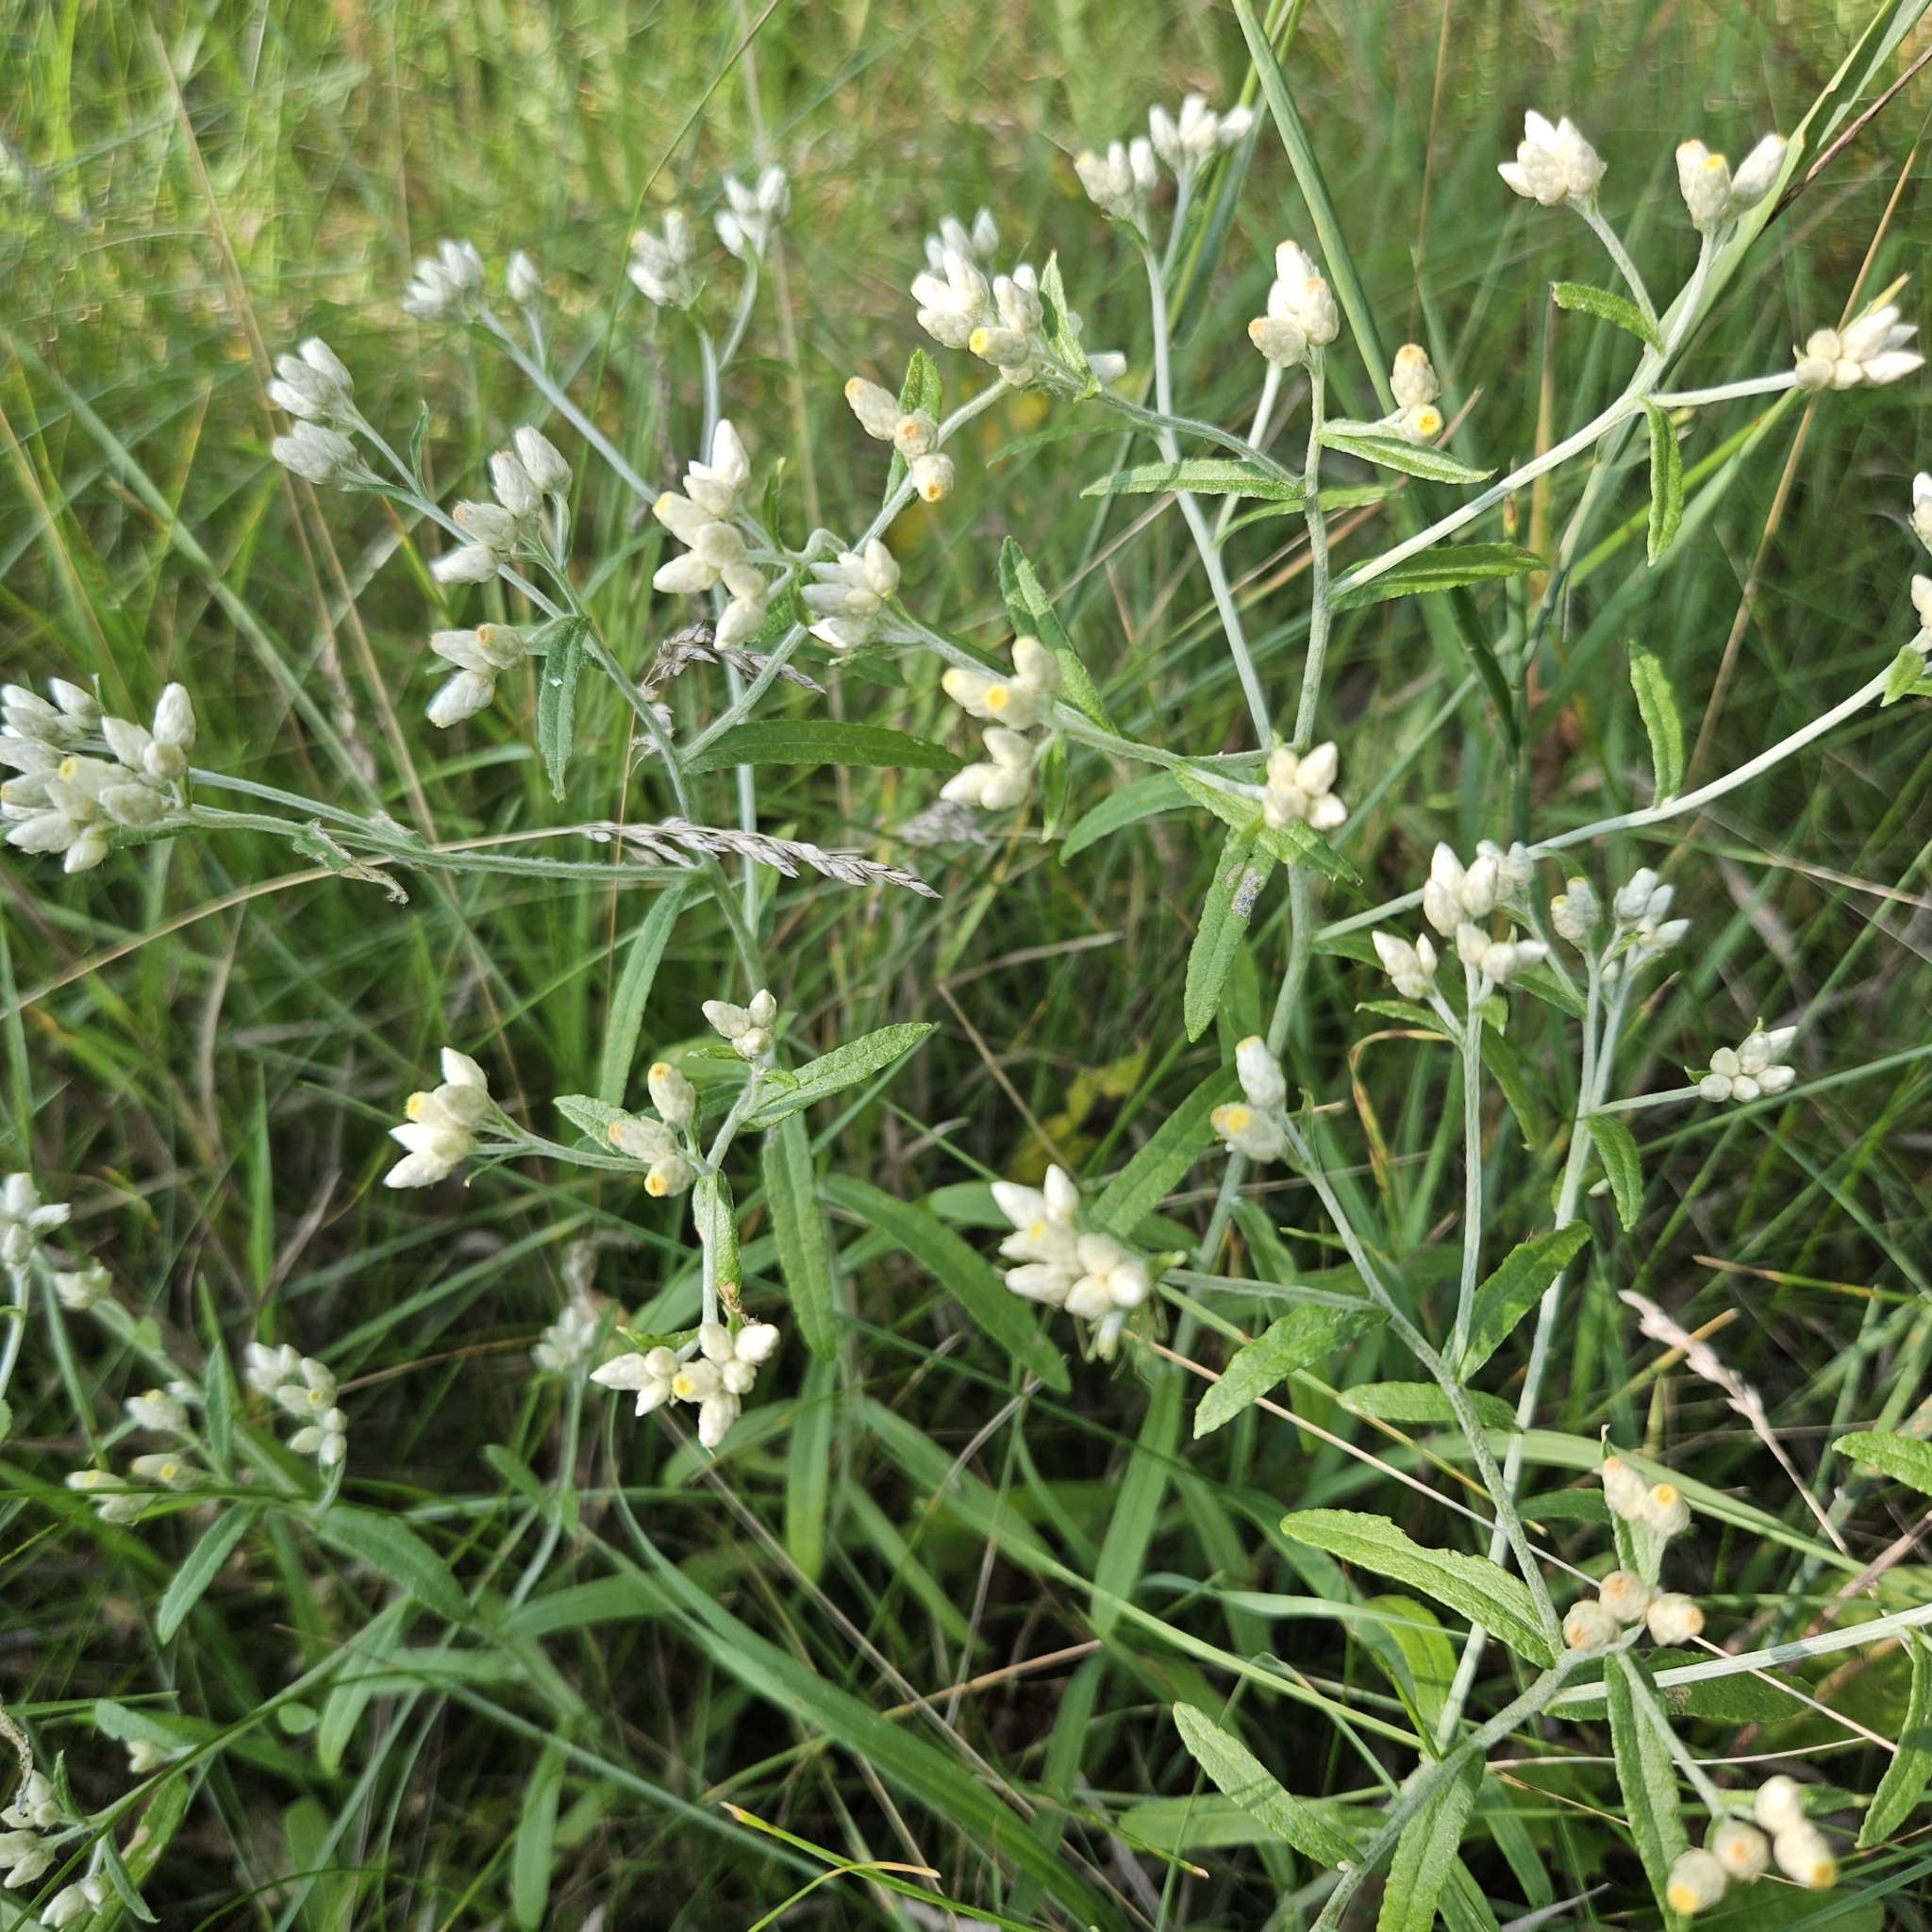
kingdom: Plantae
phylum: Tracheophyta
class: Magnoliopsida
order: Asterales
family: Asteraceae
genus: Pseudognaphalium
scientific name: Pseudognaphalium obtusifolium
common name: Eastern rabbit-tobacco
